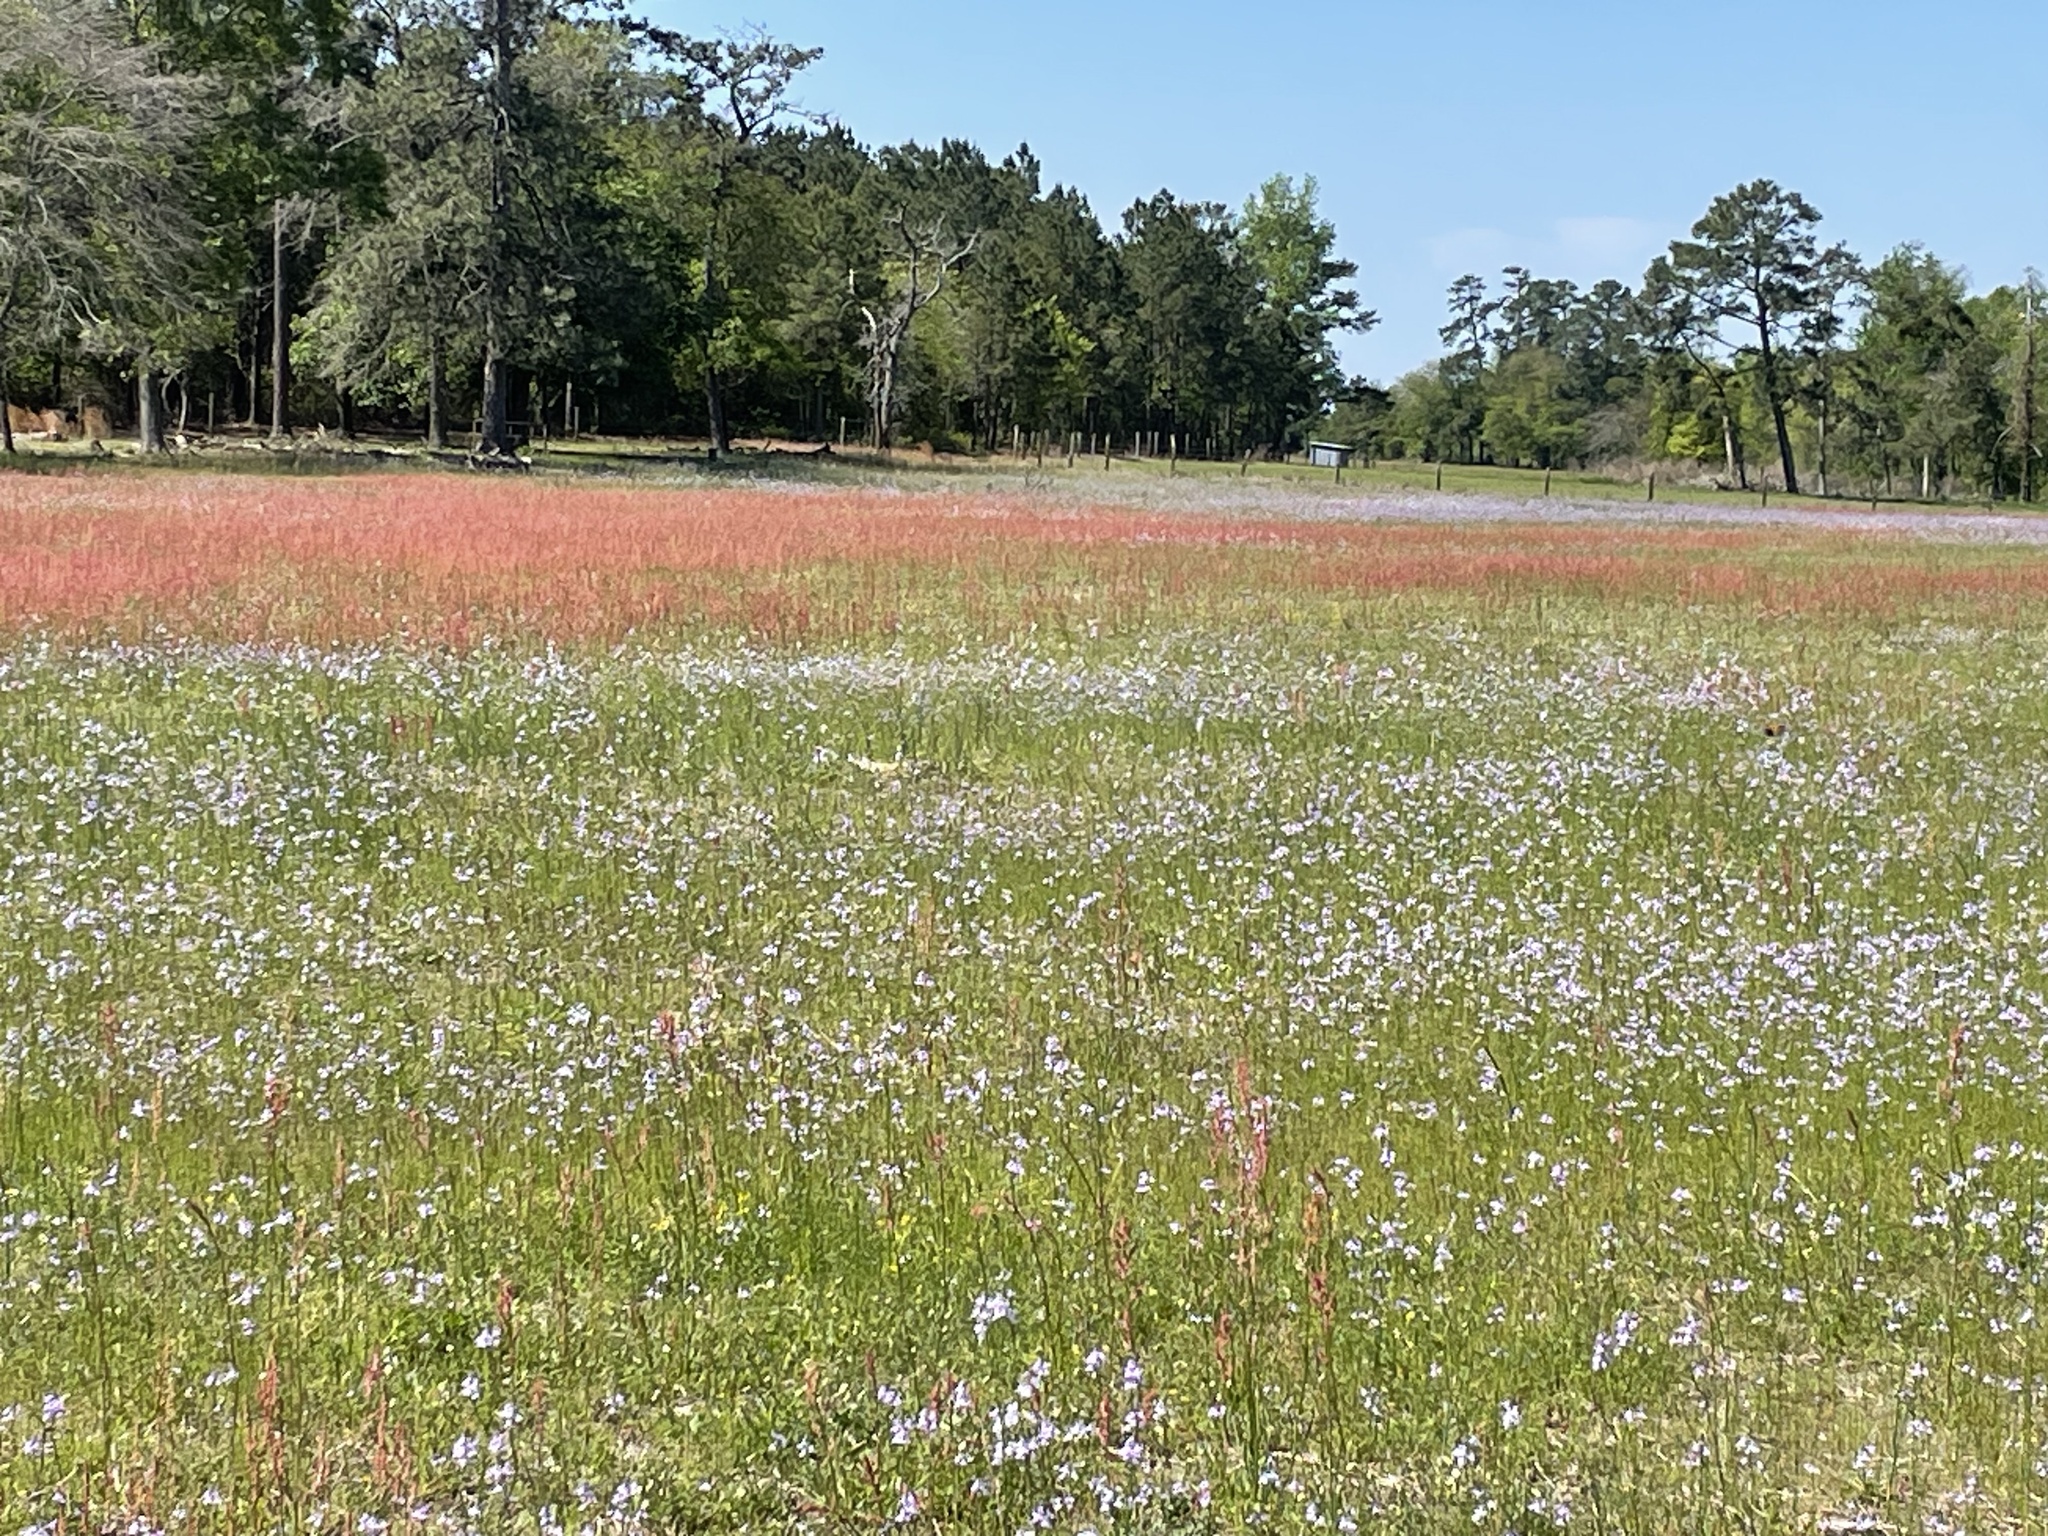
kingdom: Plantae
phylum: Tracheophyta
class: Magnoliopsida
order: Caryophyllales
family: Polygonaceae
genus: Rumex
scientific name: Rumex hastatulus
